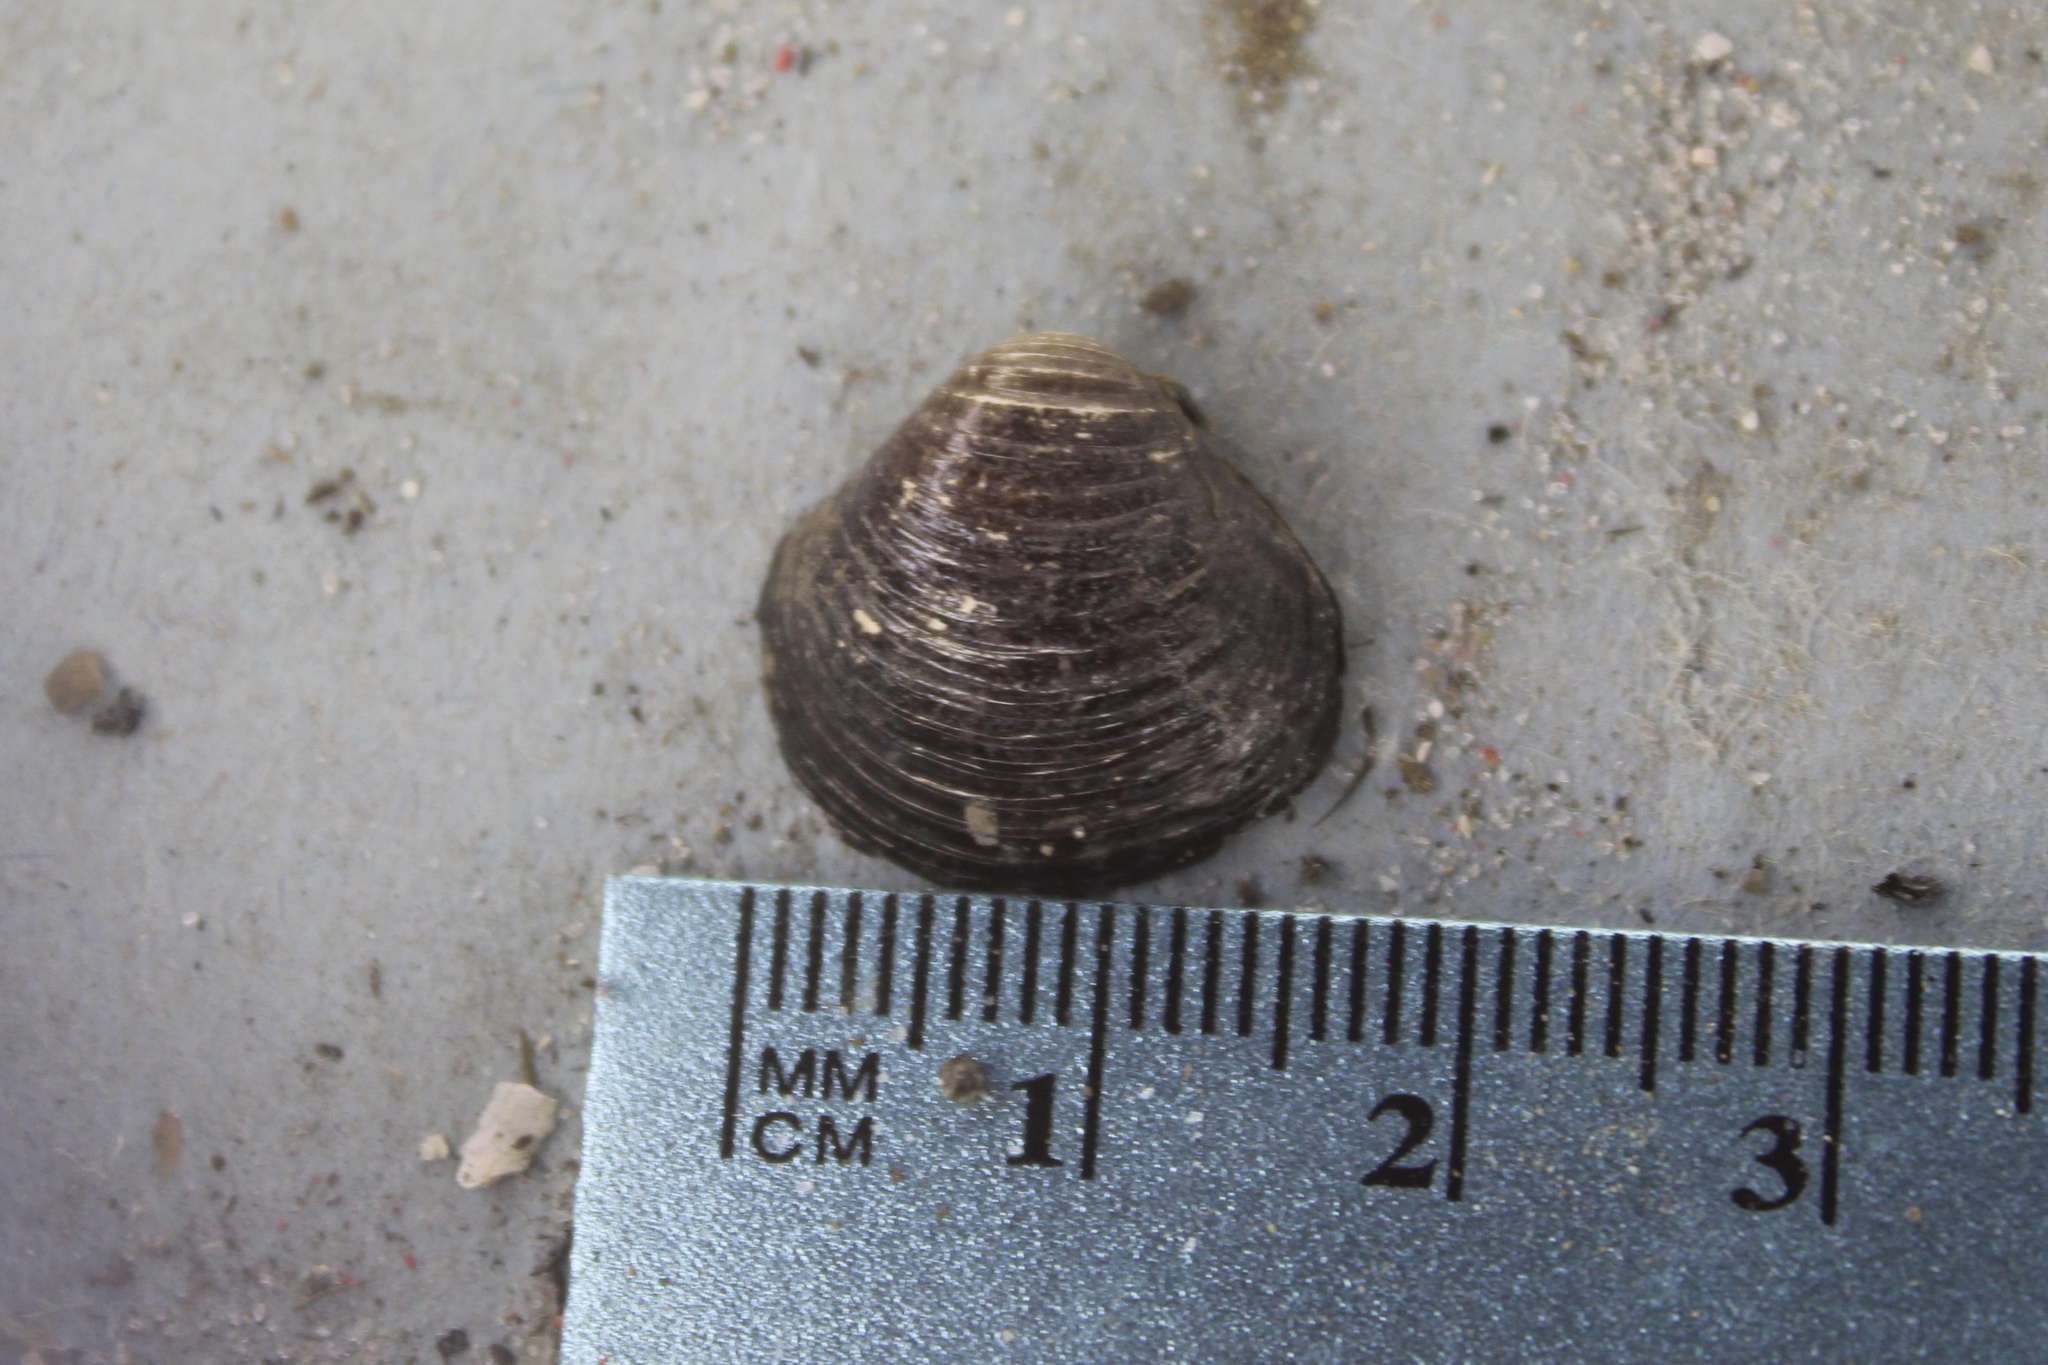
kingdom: Animalia
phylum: Mollusca
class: Bivalvia
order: Venerida
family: Cyrenidae
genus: Corbicula
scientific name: Corbicula fluminea
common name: Asian clam
